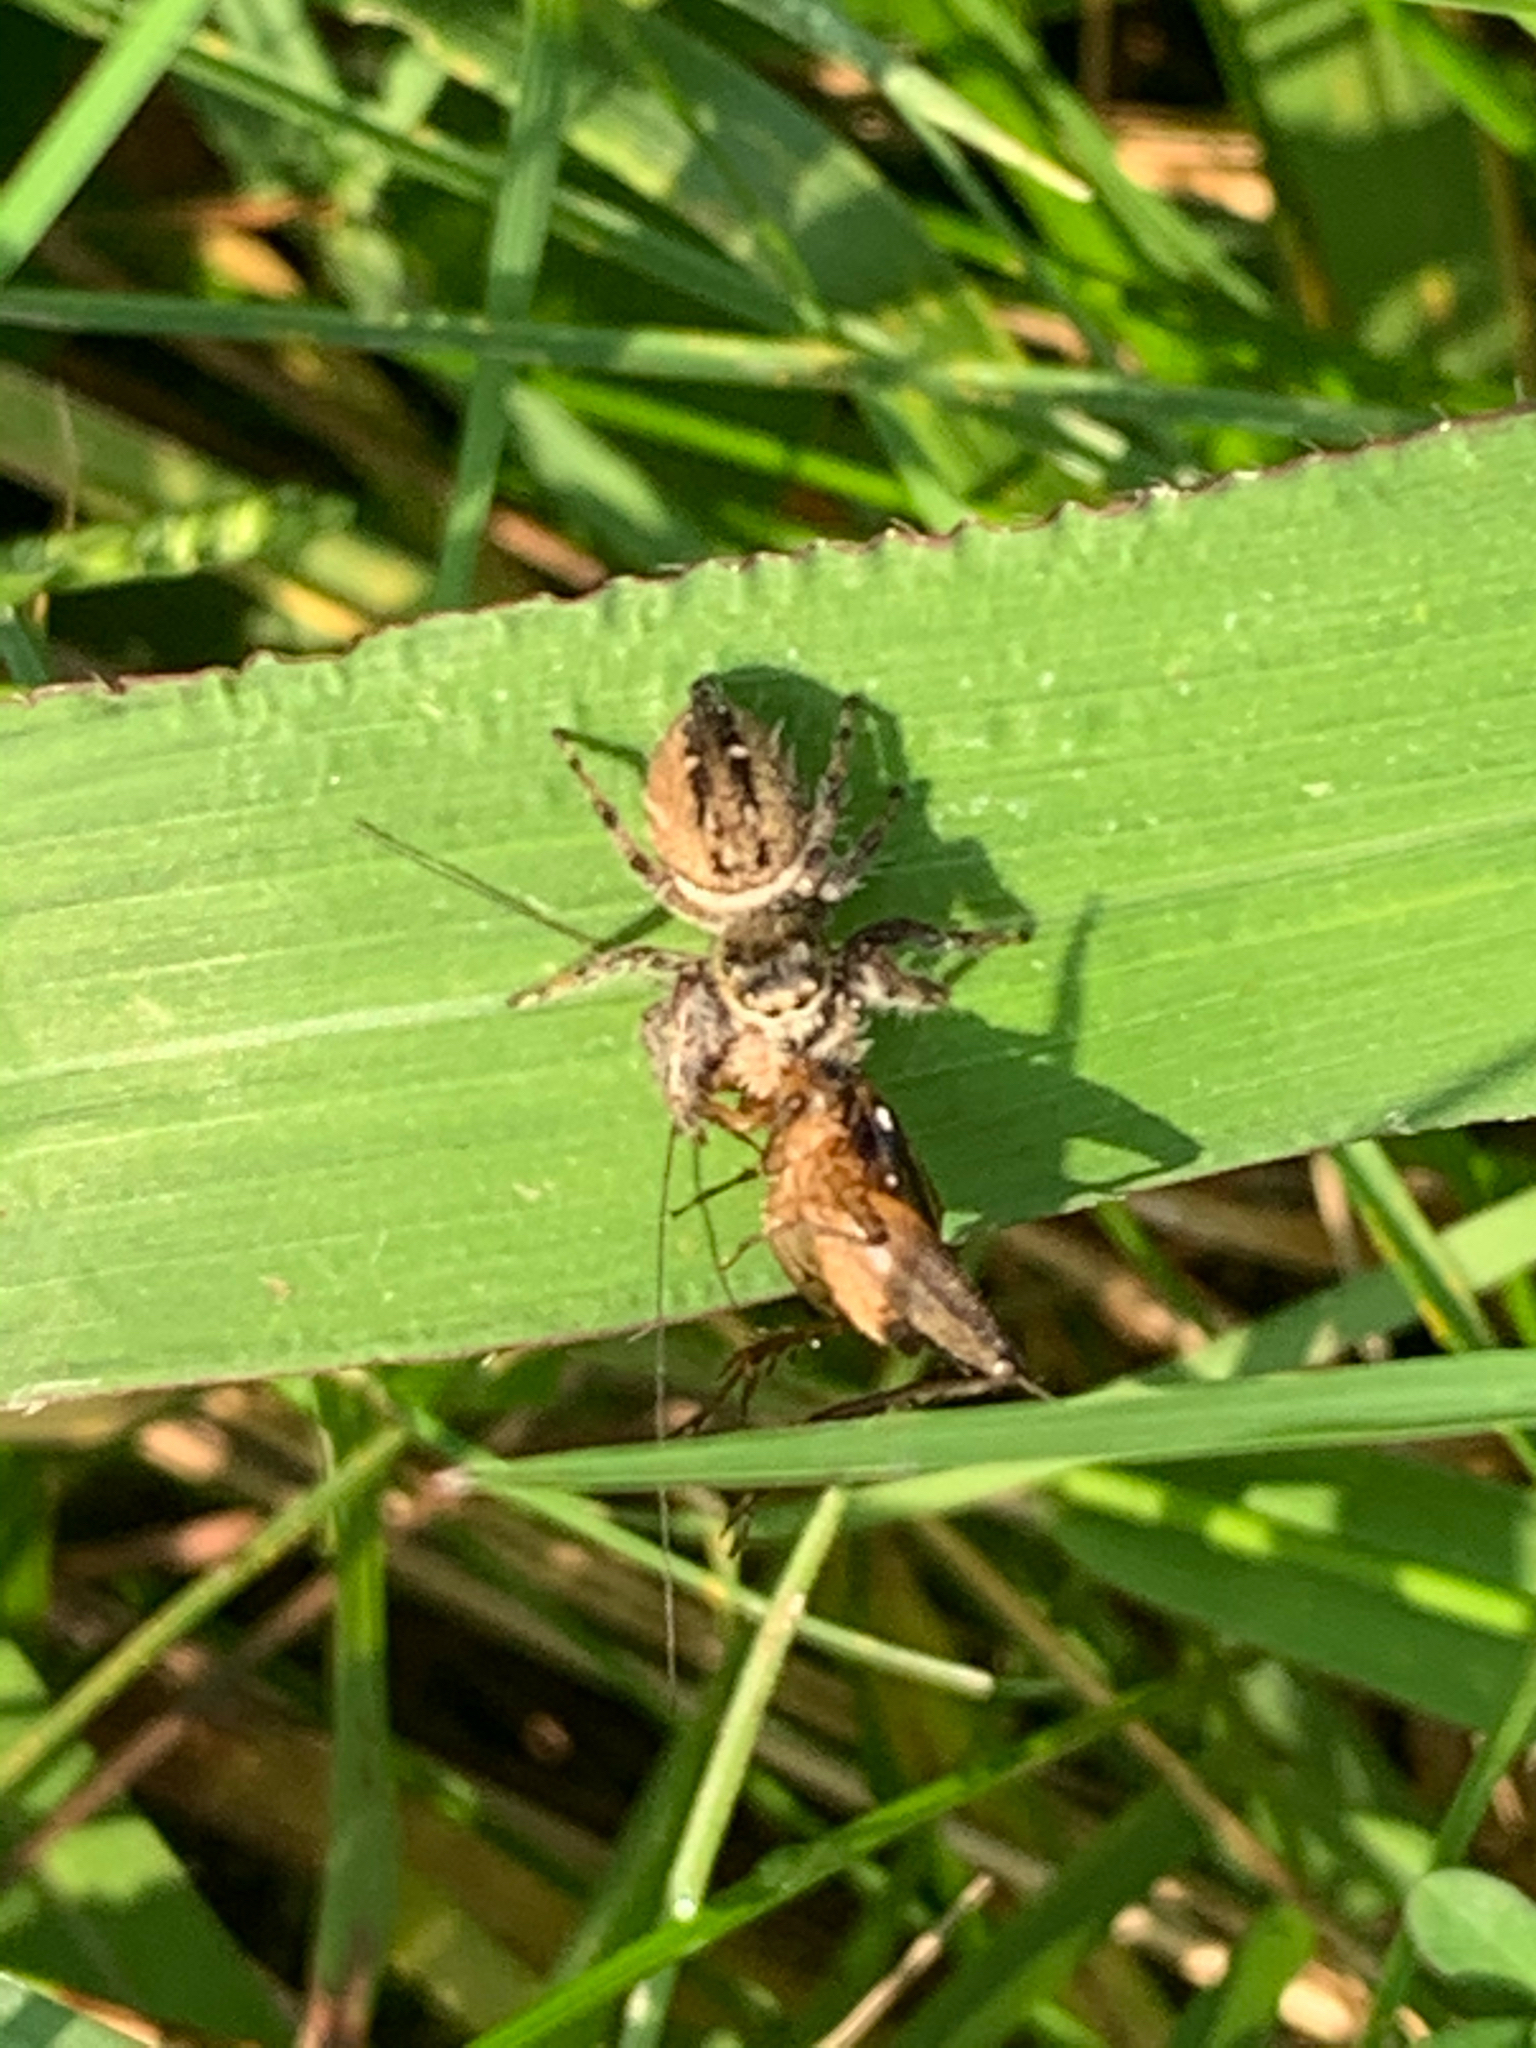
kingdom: Animalia
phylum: Arthropoda
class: Arachnida
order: Araneae
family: Salticidae
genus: Phidippus
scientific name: Phidippus clarus
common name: Brilliant jumping spider
